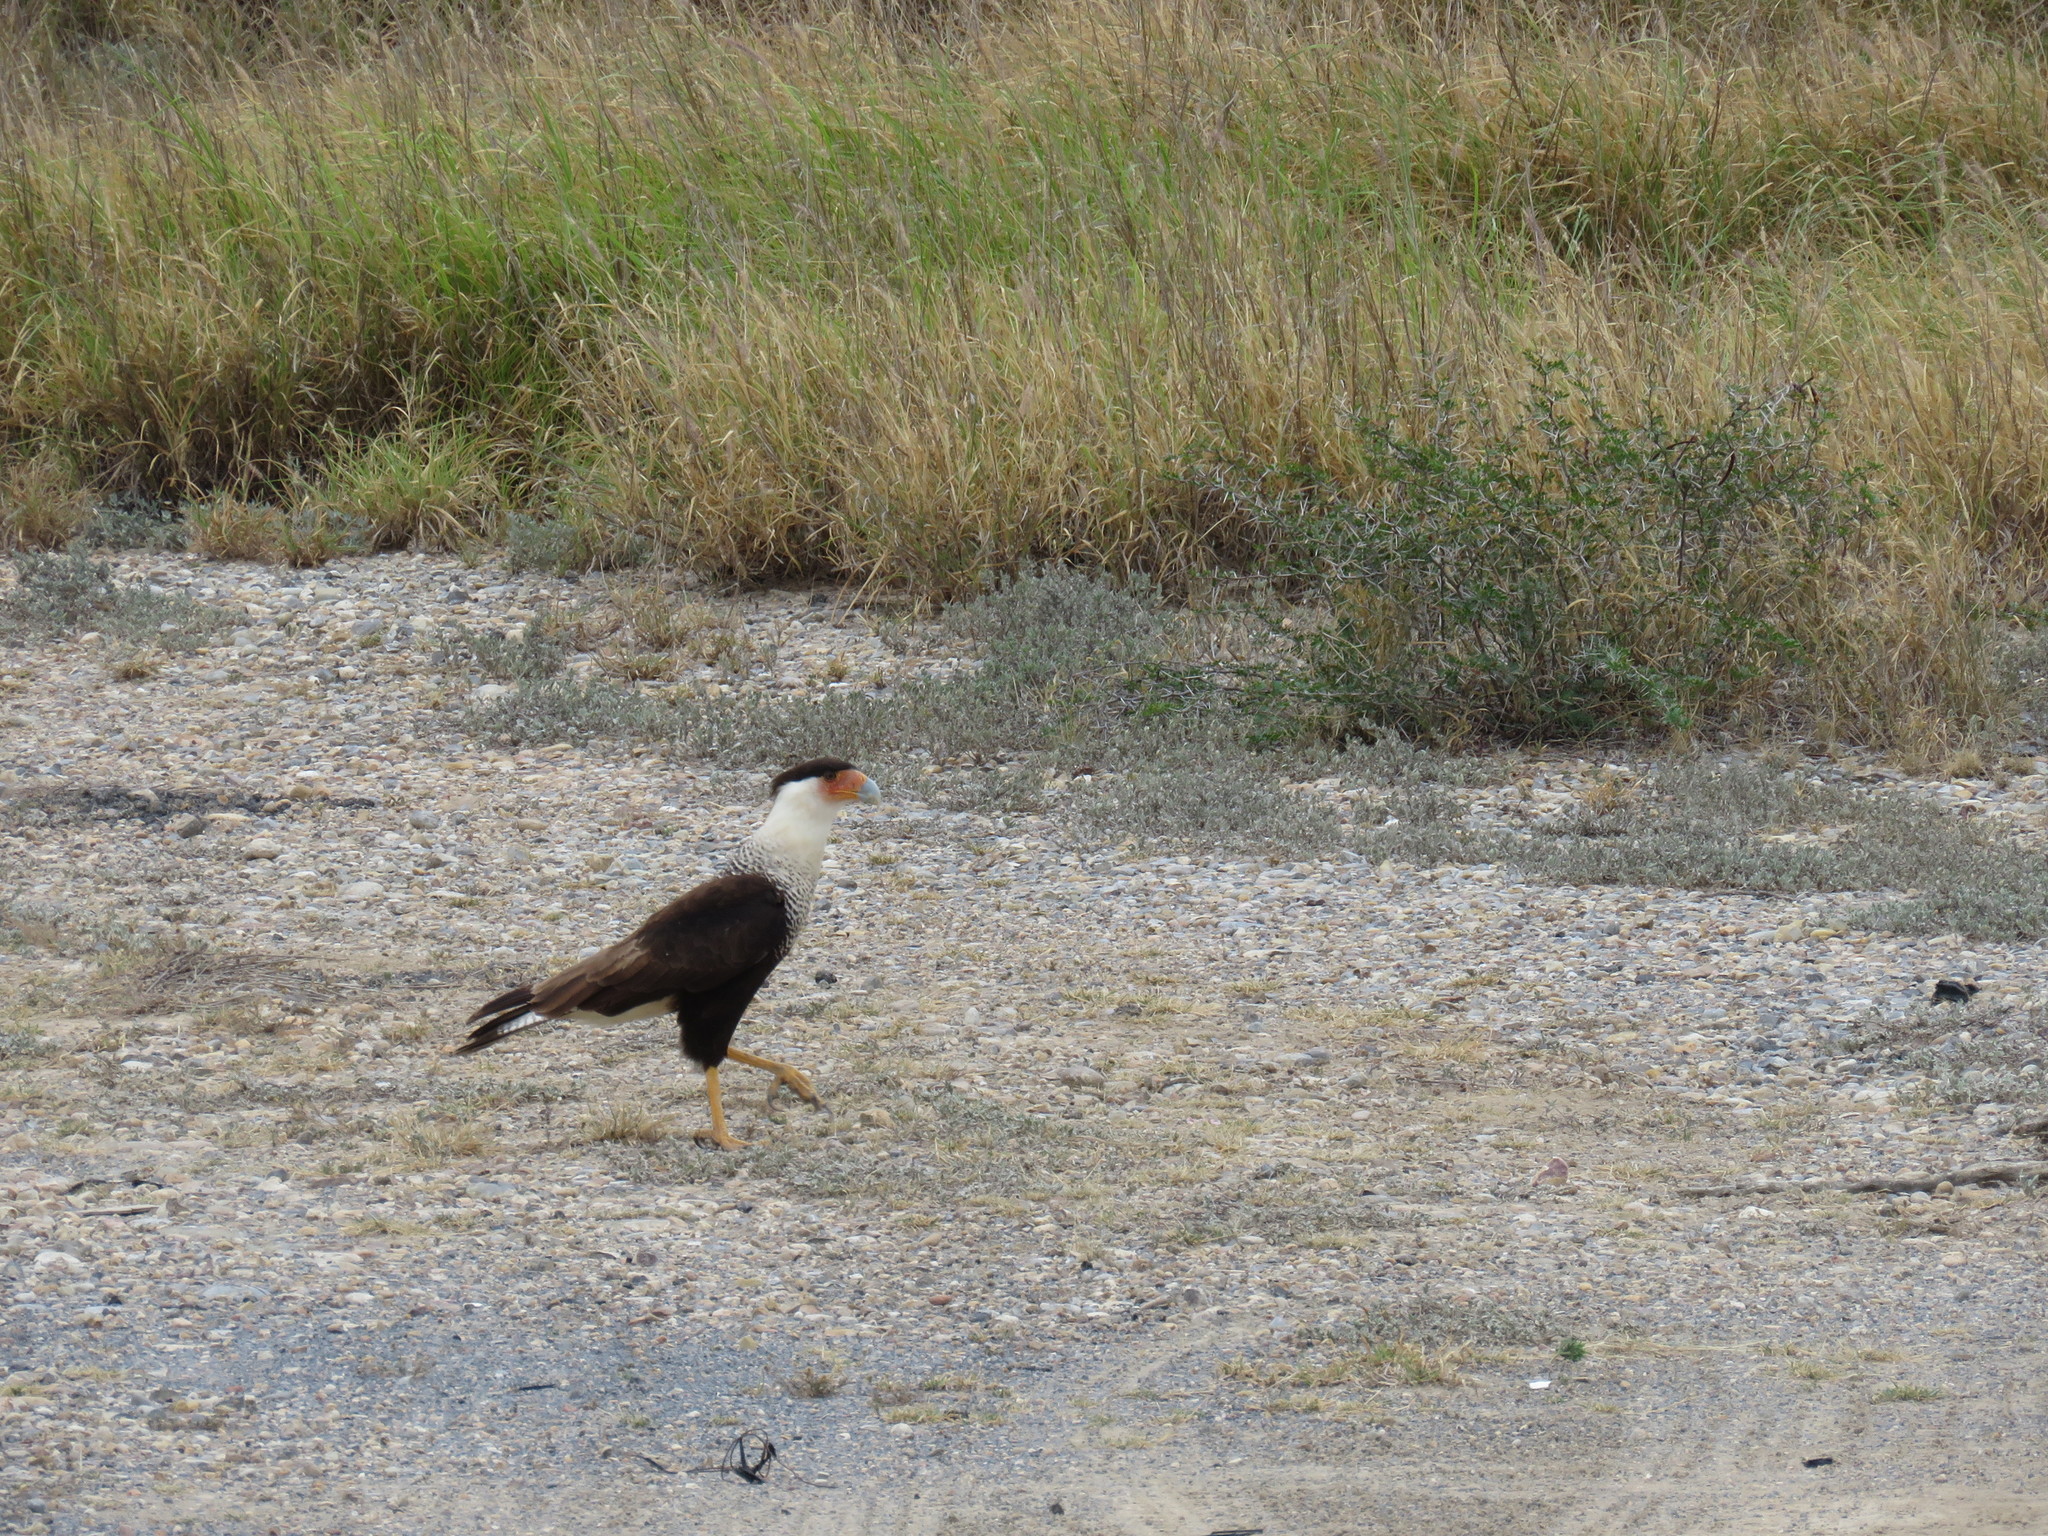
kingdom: Animalia
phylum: Chordata
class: Aves
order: Falconiformes
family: Falconidae
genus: Caracara
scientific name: Caracara plancus
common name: Southern caracara
